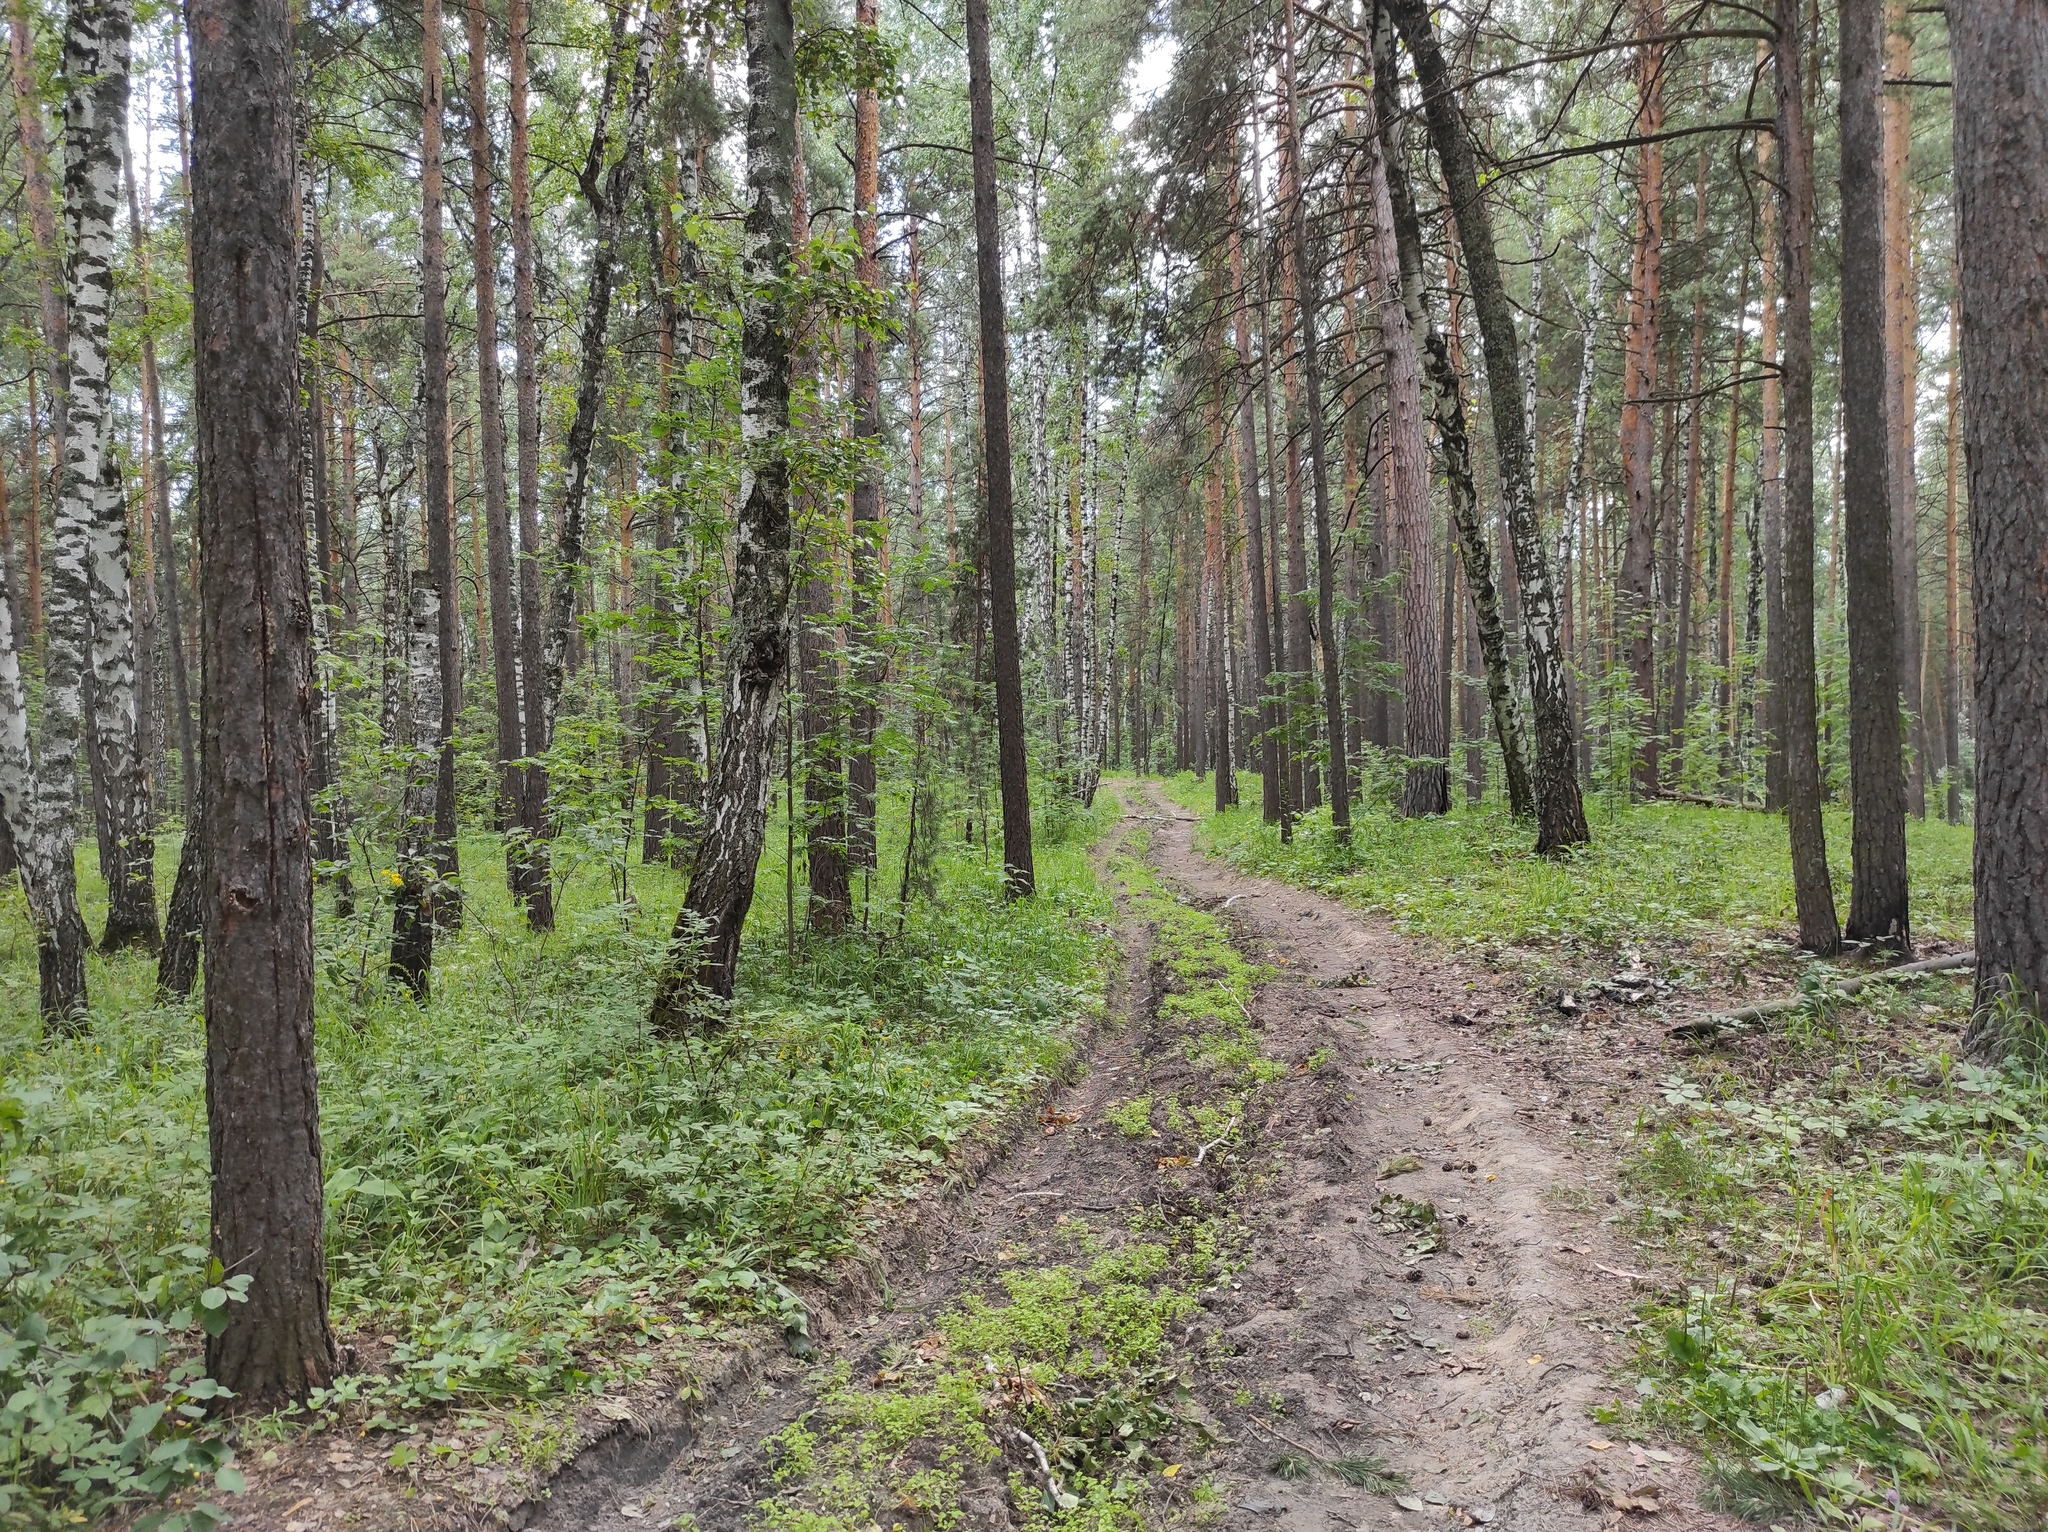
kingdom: Plantae
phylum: Tracheophyta
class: Magnoliopsida
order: Fagales
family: Betulaceae
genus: Betula
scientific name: Betula pendula
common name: Silver birch
